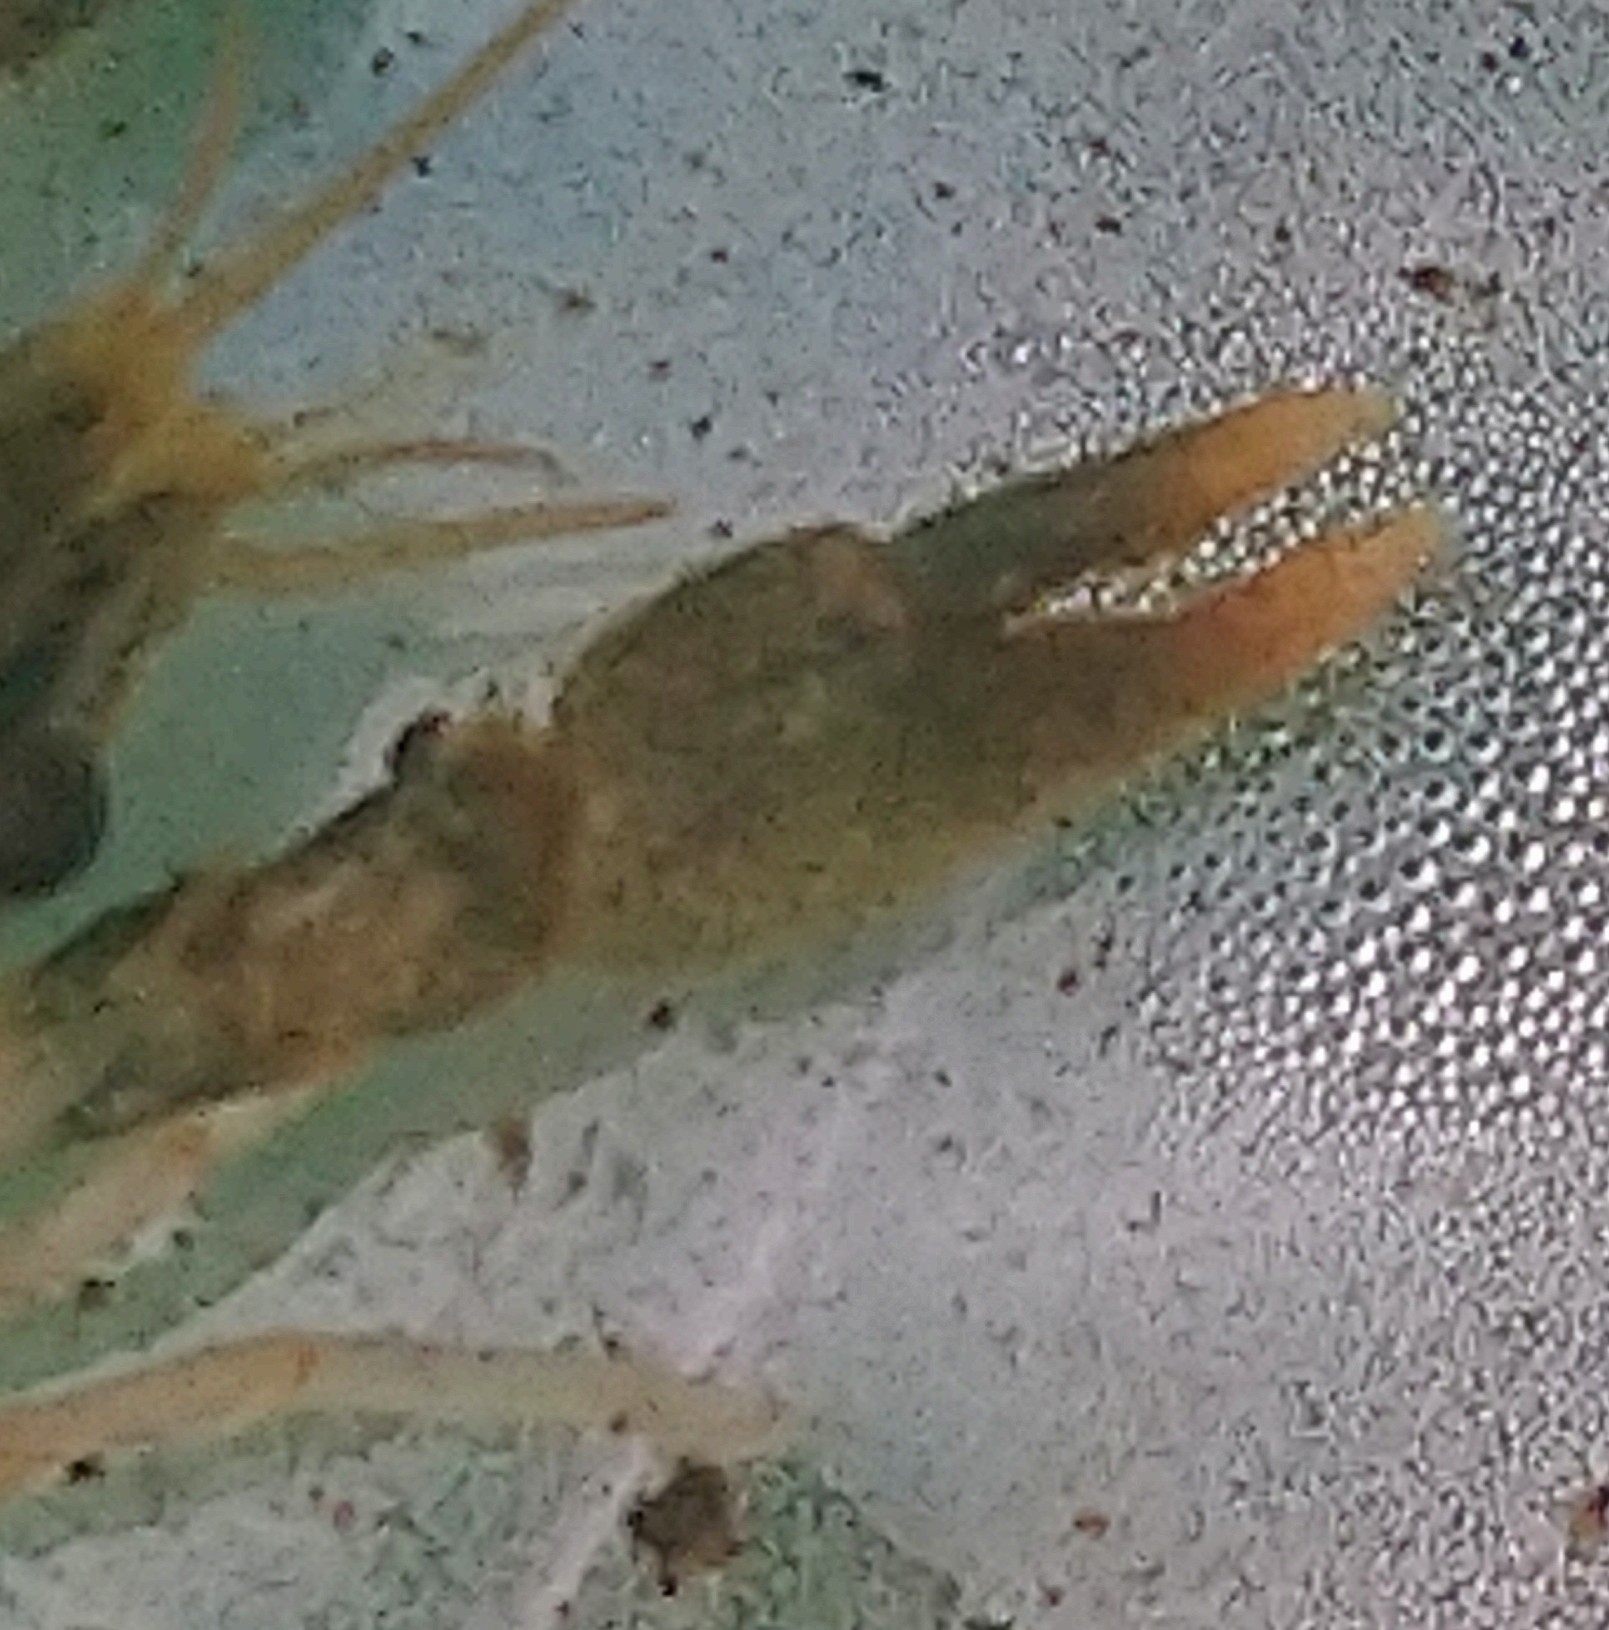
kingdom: Animalia
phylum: Arthropoda
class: Malacostraca
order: Decapoda
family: Astacidae
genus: Astacus
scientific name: Astacus astacus
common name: Noble crayfish
